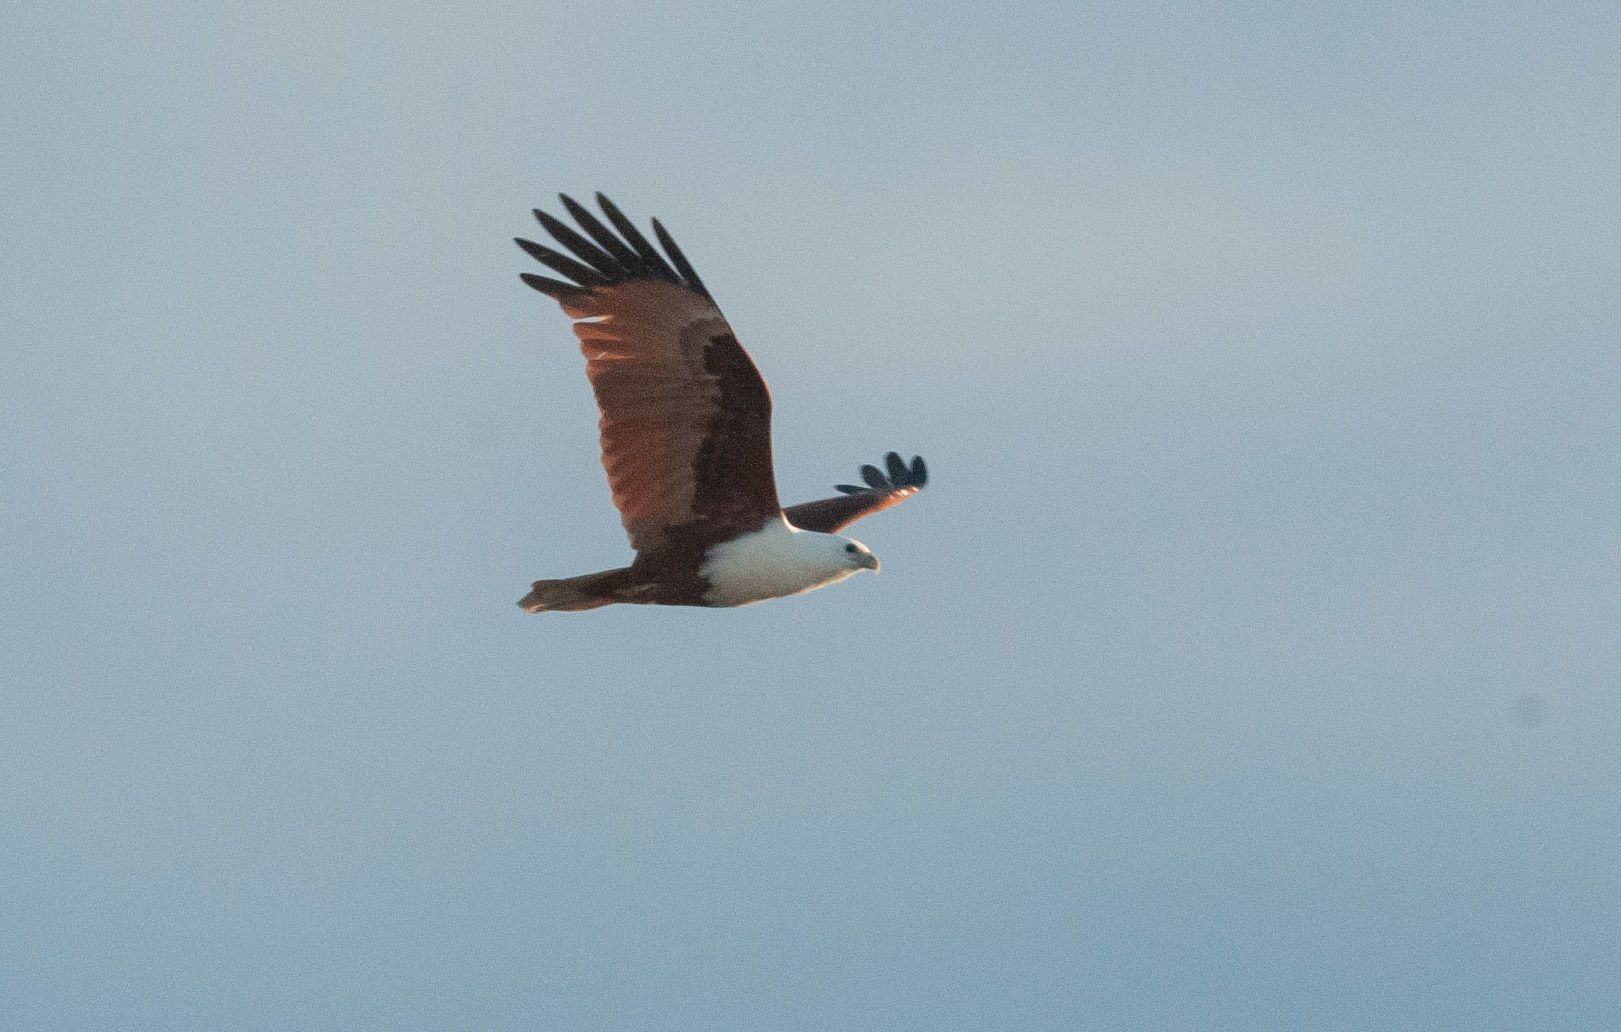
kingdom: Animalia
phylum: Chordata
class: Aves
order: Accipitriformes
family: Accipitridae
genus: Haliastur
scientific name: Haliastur indus
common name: Brahminy kite
